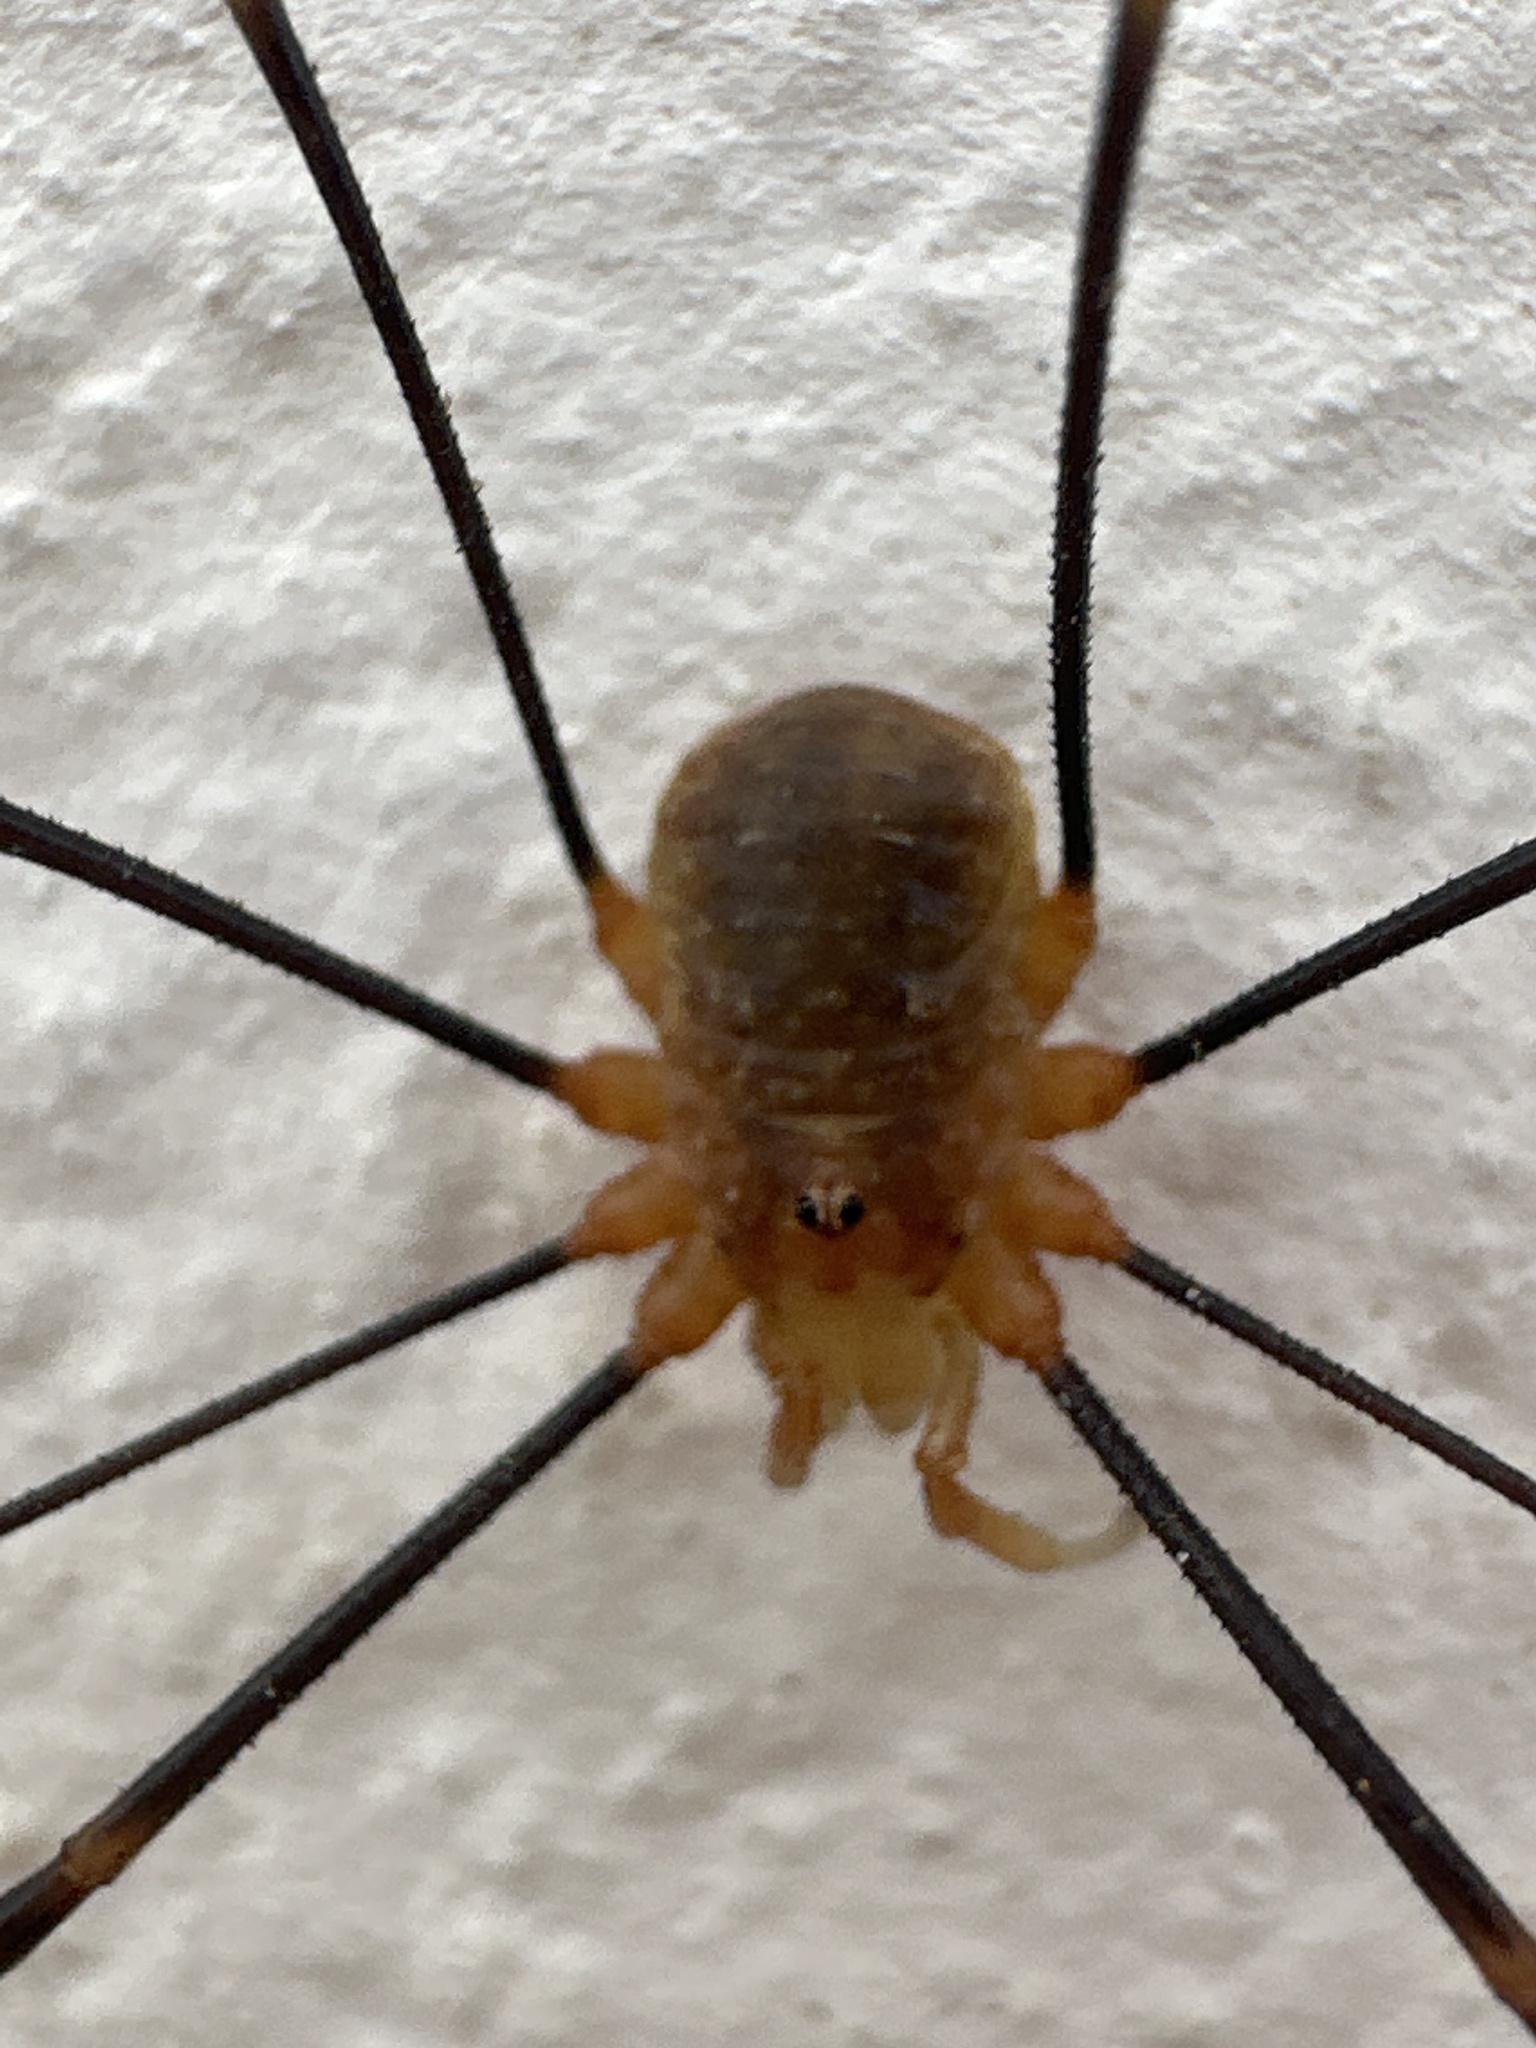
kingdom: Animalia
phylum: Arthropoda
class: Arachnida
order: Opiliones
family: Phalangiidae
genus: Opilio
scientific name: Opilio canestrinii
